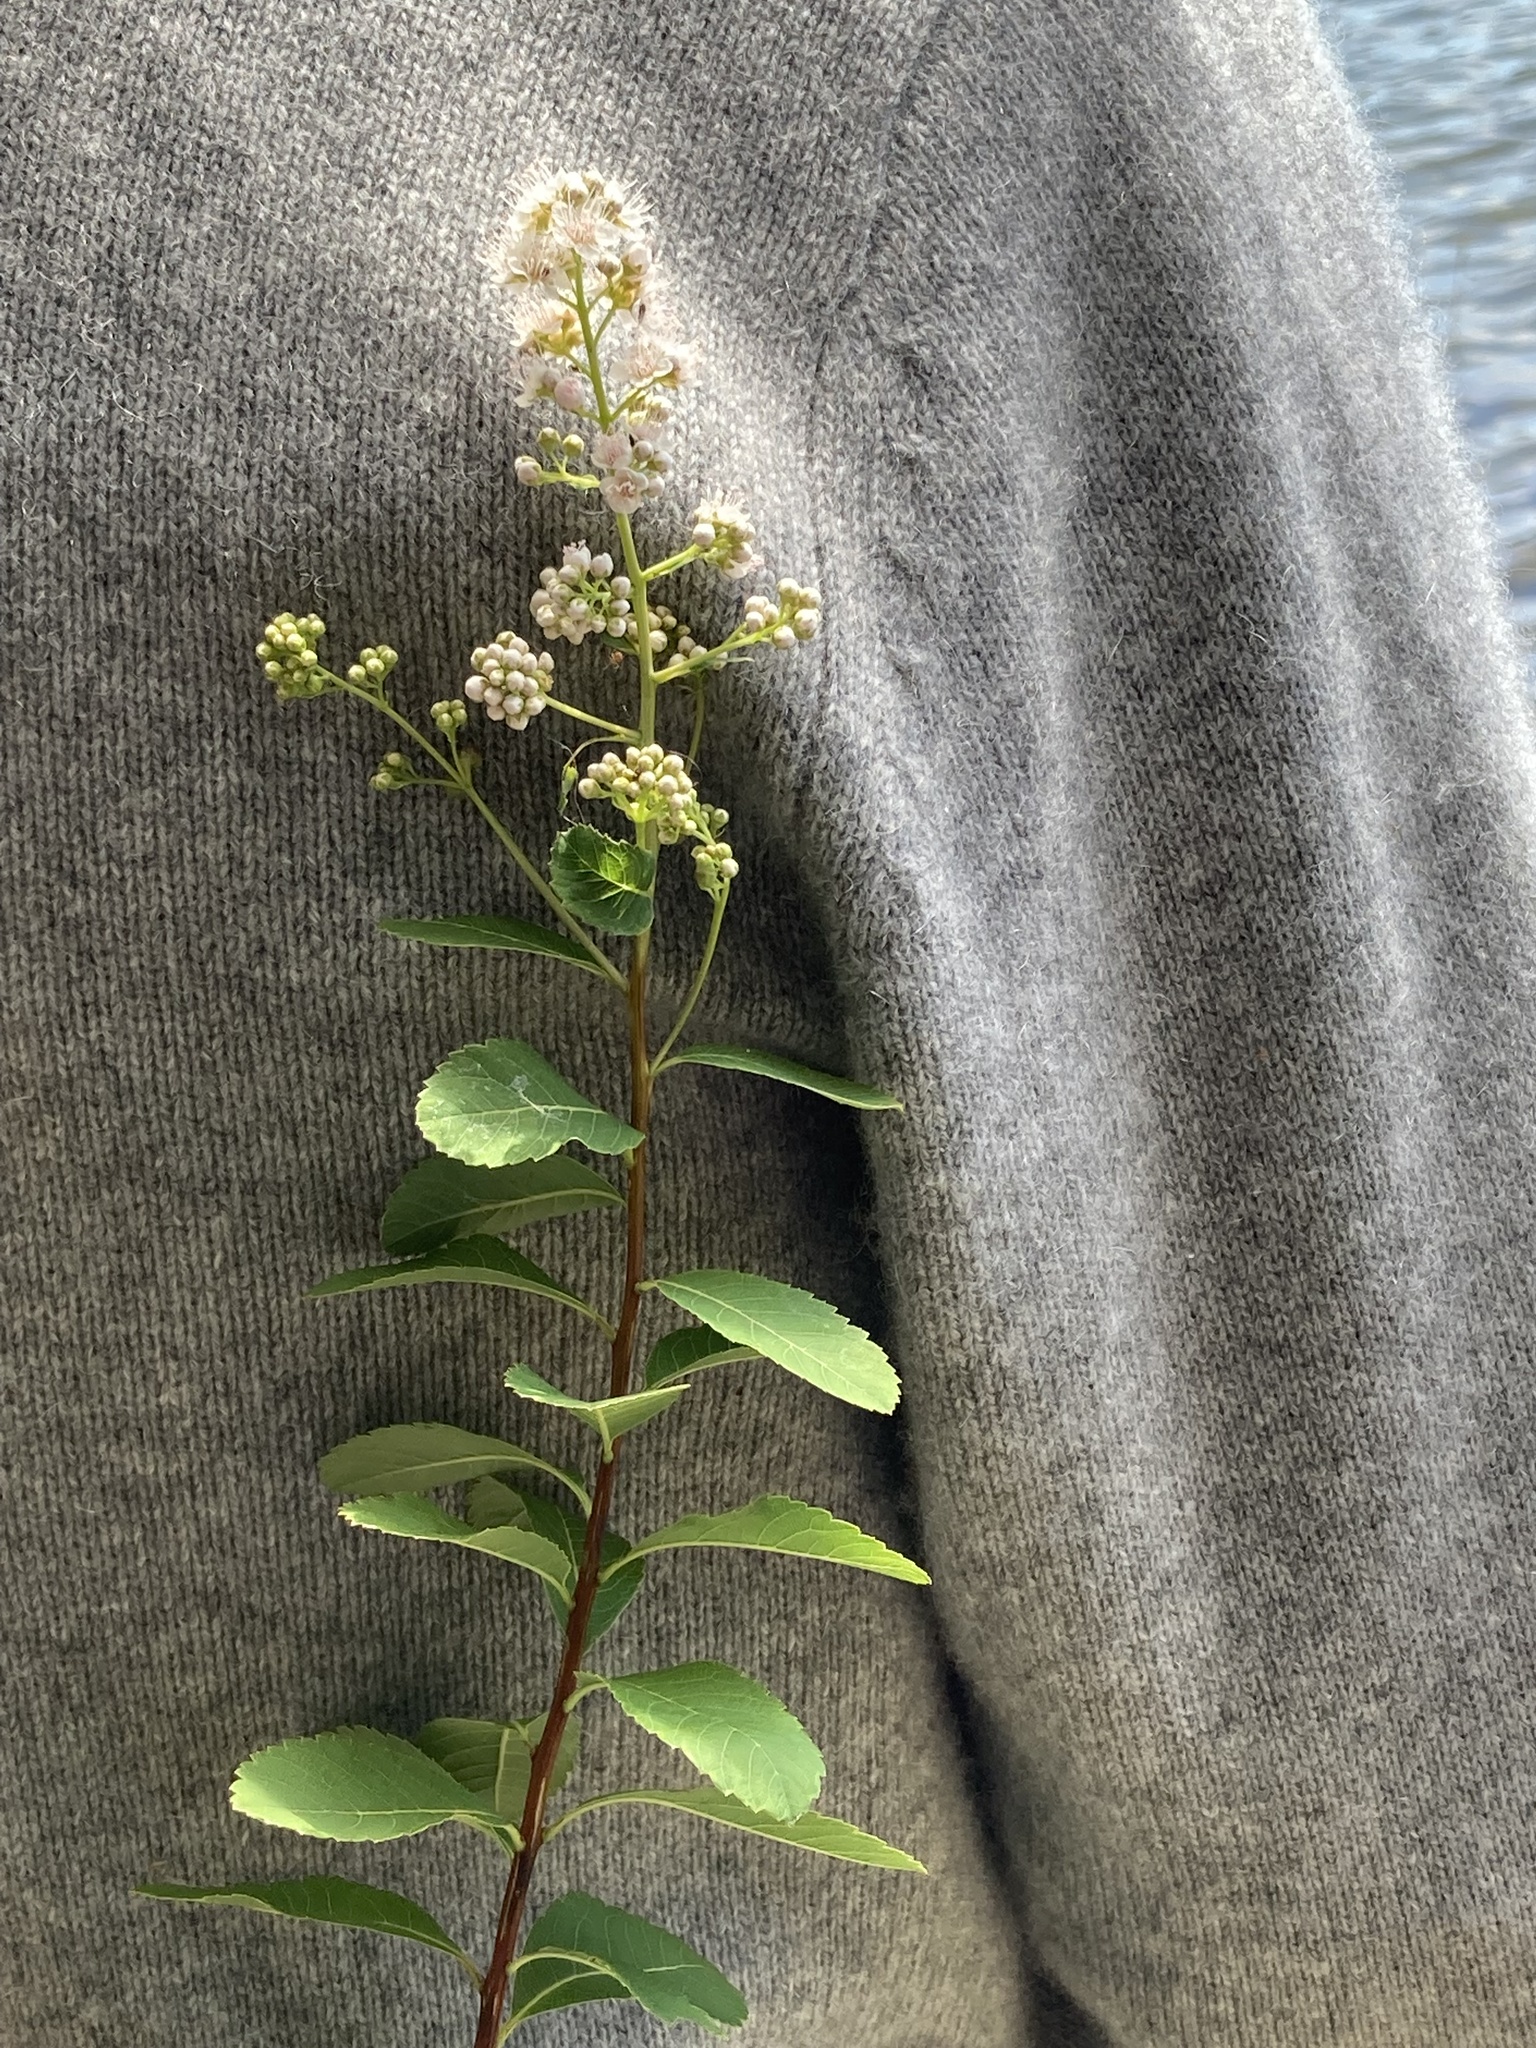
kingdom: Plantae
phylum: Tracheophyta
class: Magnoliopsida
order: Rosales
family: Rosaceae
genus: Spiraea
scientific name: Spiraea alba
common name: Pale bridewort
